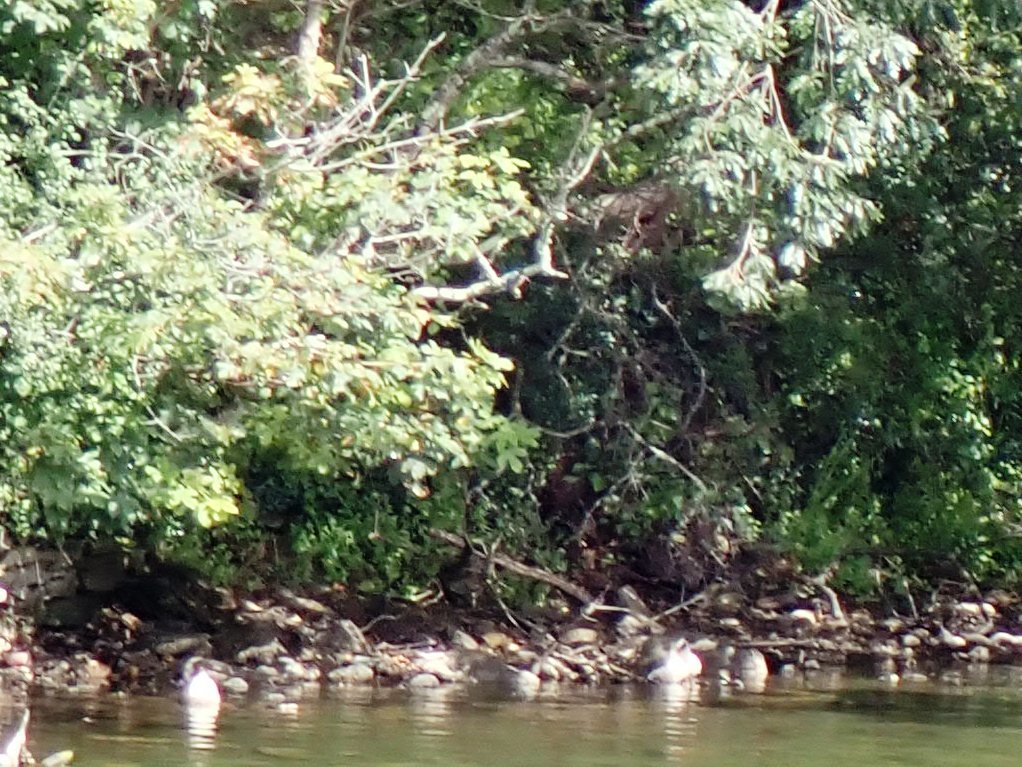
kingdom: Animalia
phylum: Chordata
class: Aves
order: Coraciiformes
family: Alcedinidae
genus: Alcedo
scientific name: Alcedo atthis
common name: Common kingfisher
